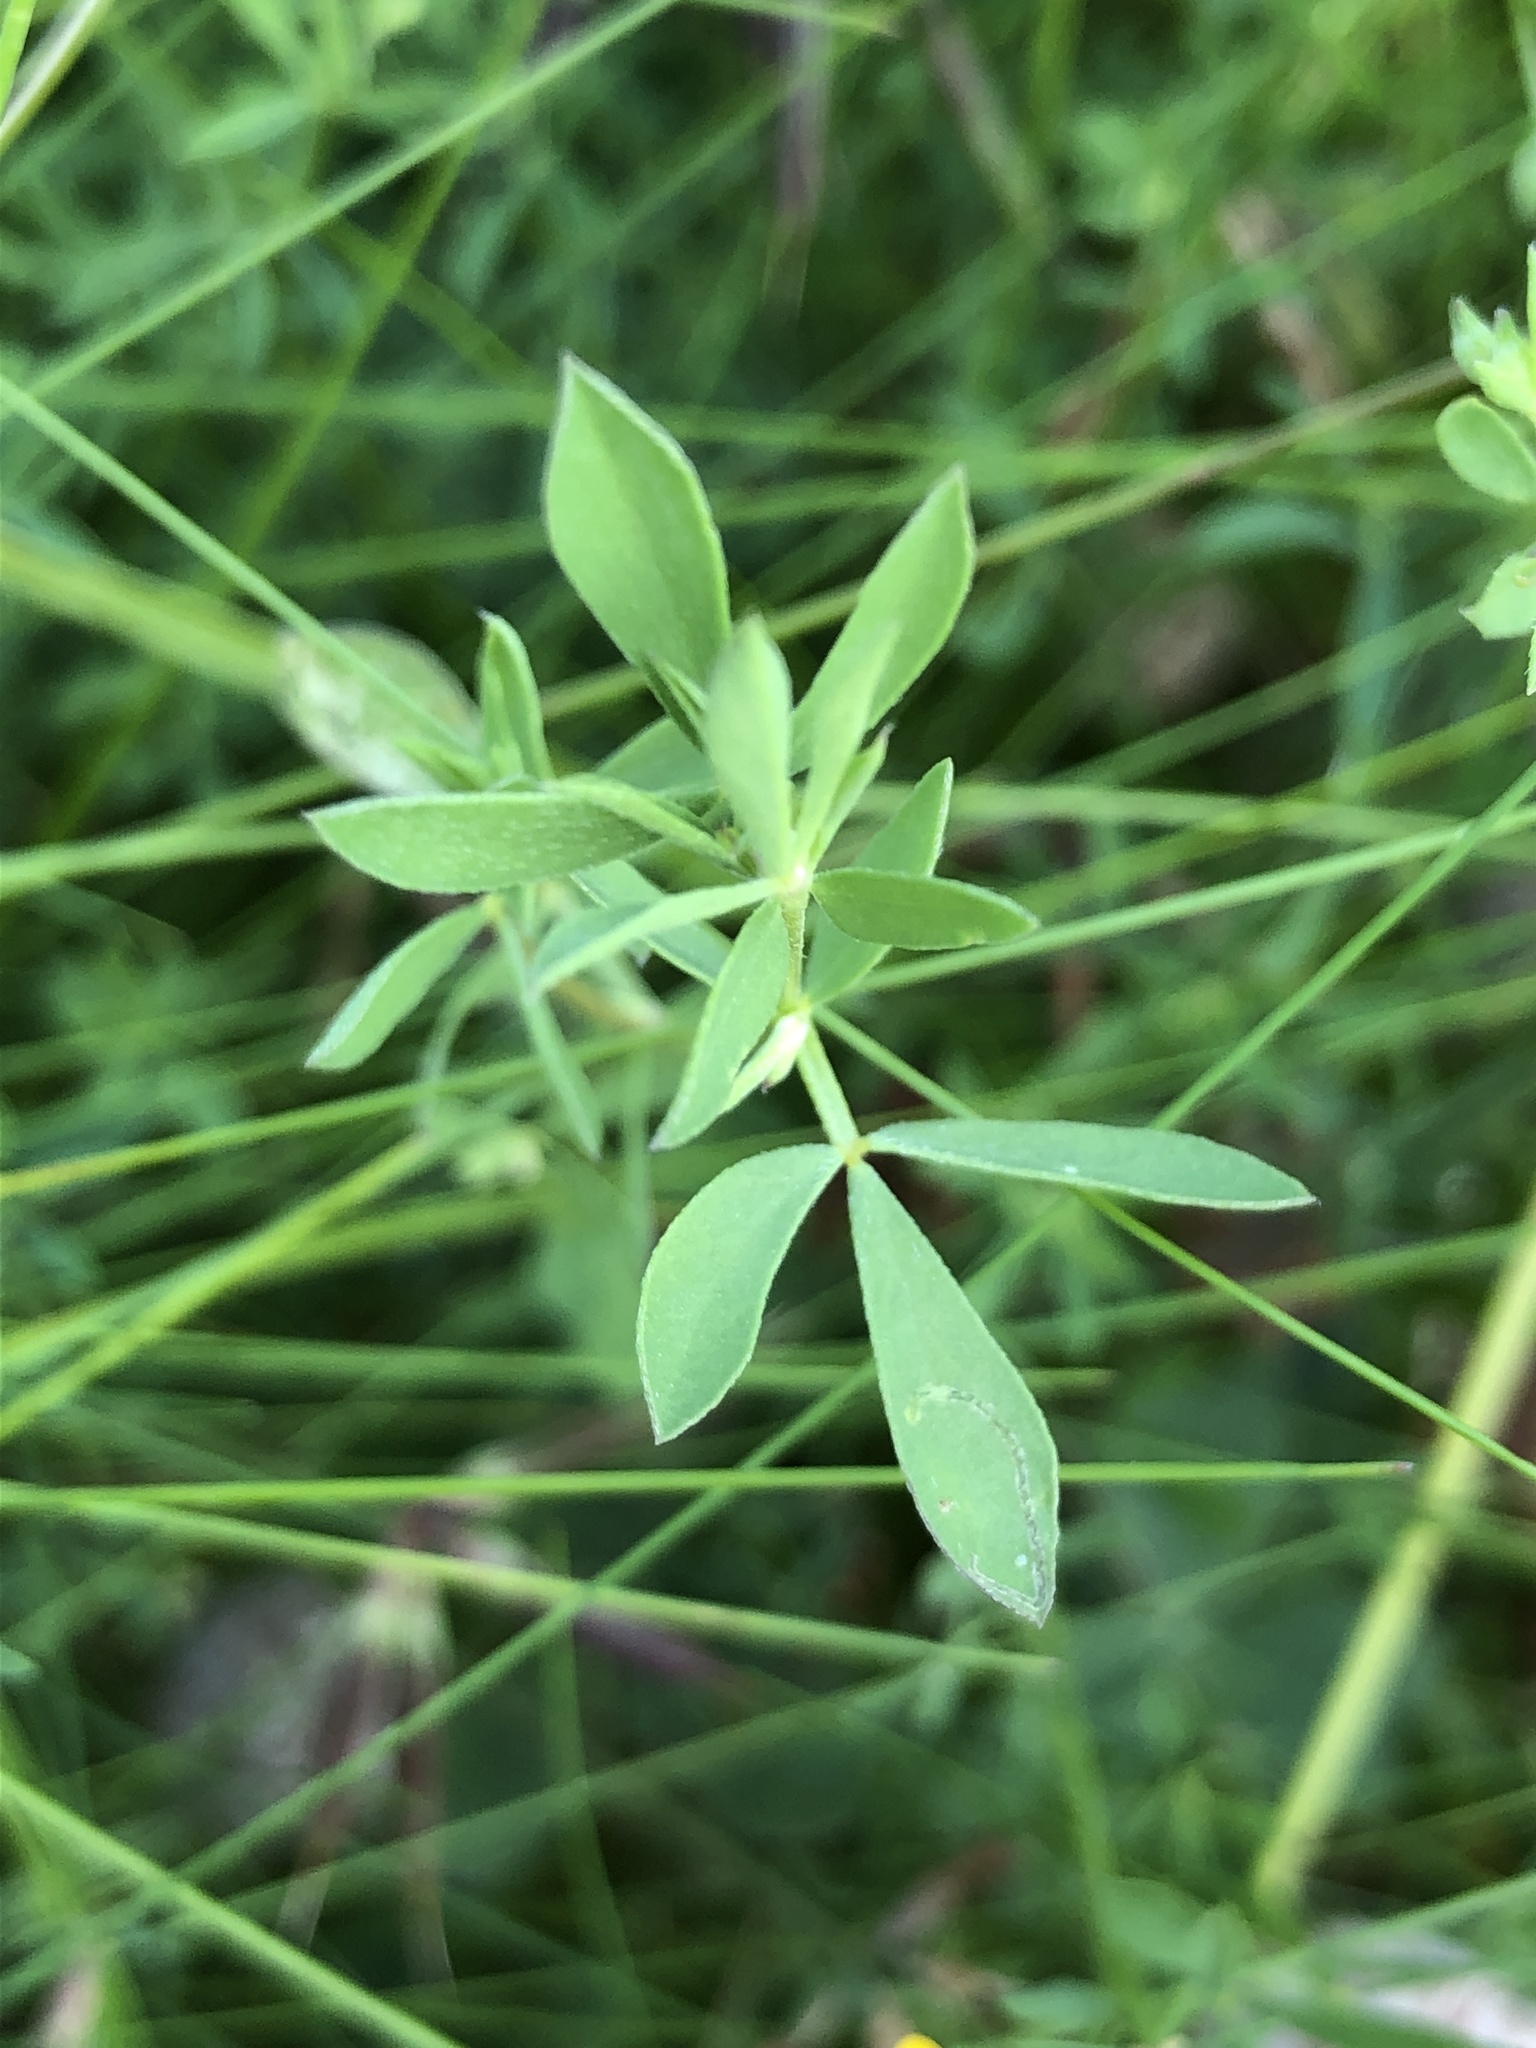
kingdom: Plantae
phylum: Tracheophyta
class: Magnoliopsida
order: Fabales
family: Fabaceae
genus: Lotus
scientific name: Lotus tenuis
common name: Narrow-leaved bird's-foot-trefoil
